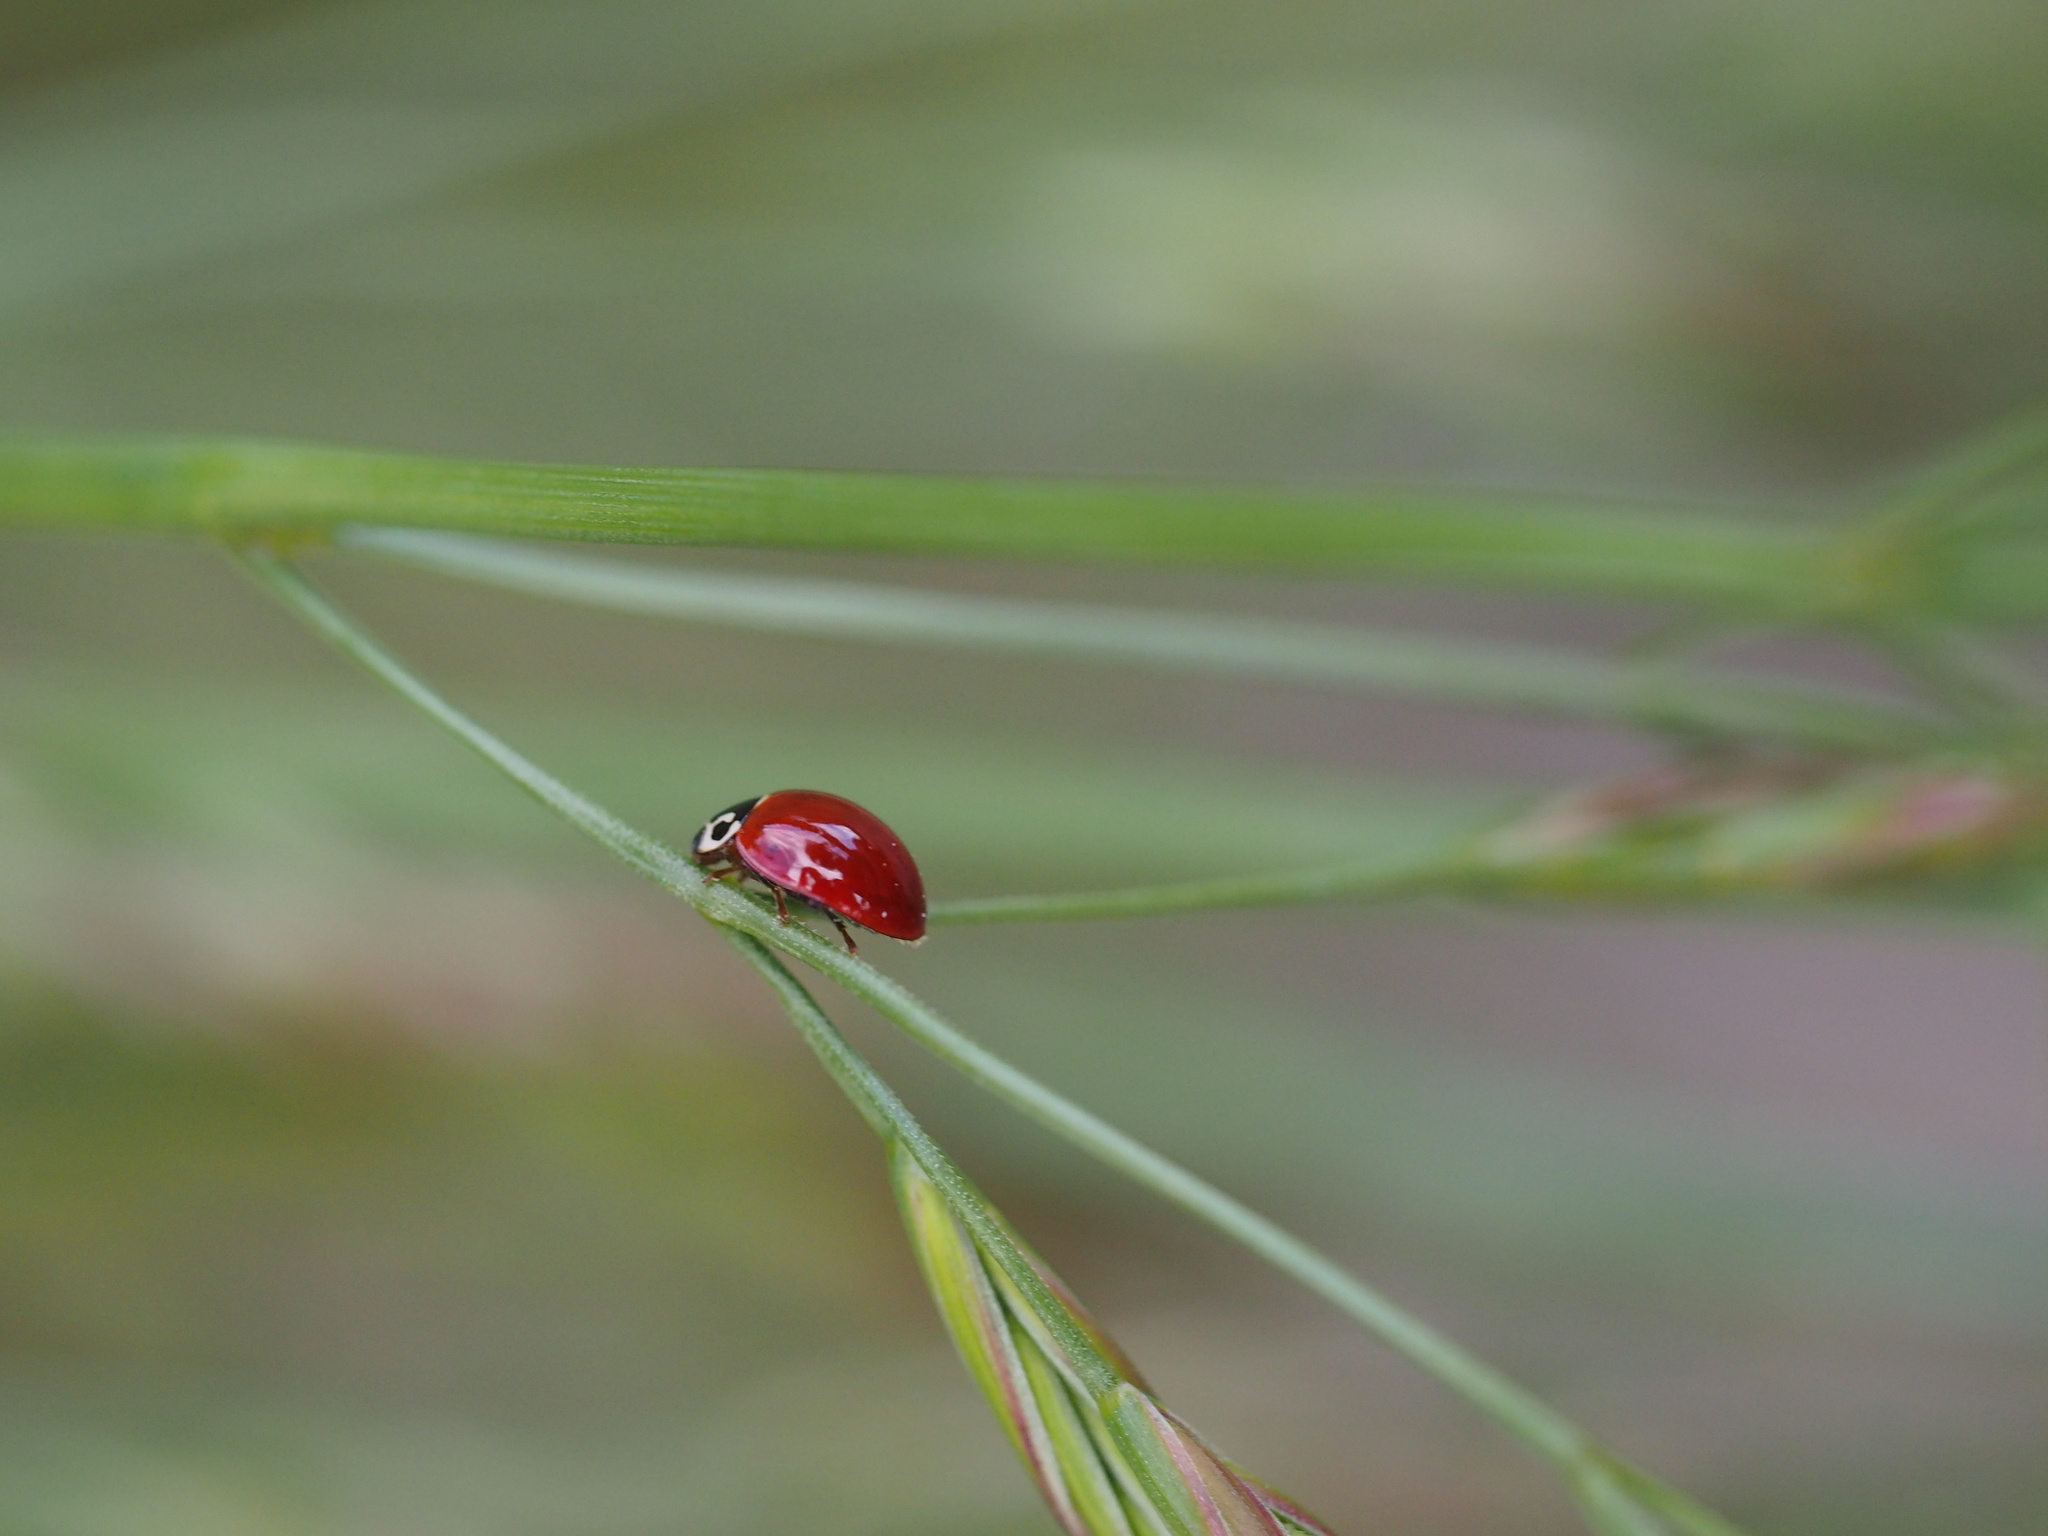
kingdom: Animalia
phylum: Arthropoda
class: Insecta
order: Coleoptera
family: Coccinellidae
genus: Cycloneda
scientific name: Cycloneda polita
